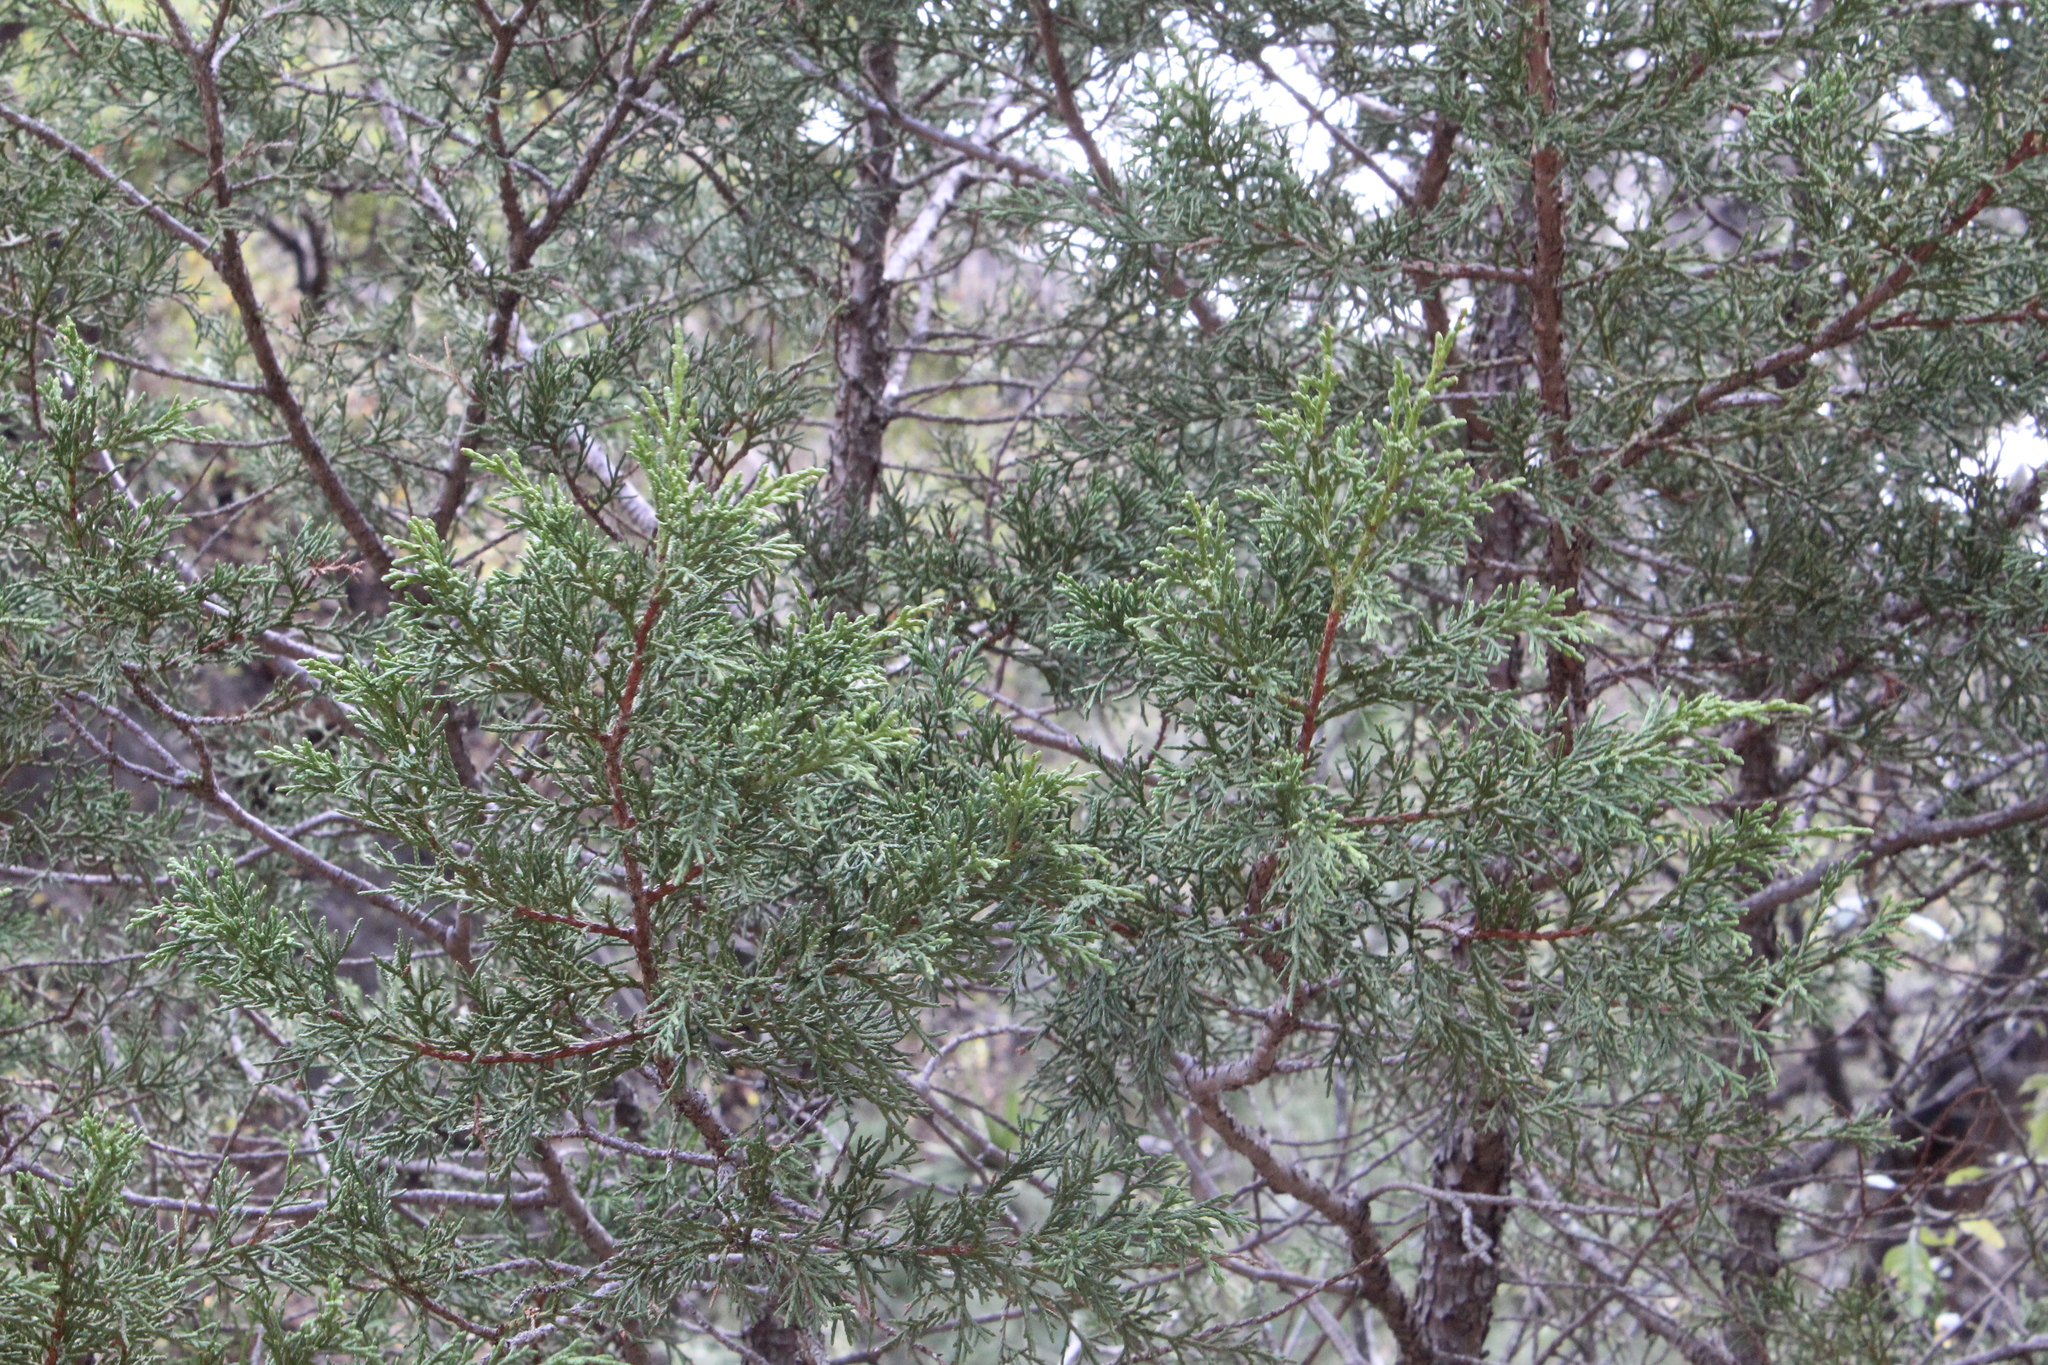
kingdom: Plantae
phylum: Tracheophyta
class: Pinopsida
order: Pinales
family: Cupressaceae
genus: Juniperus
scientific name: Juniperus deppeana
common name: Alligator juniper
